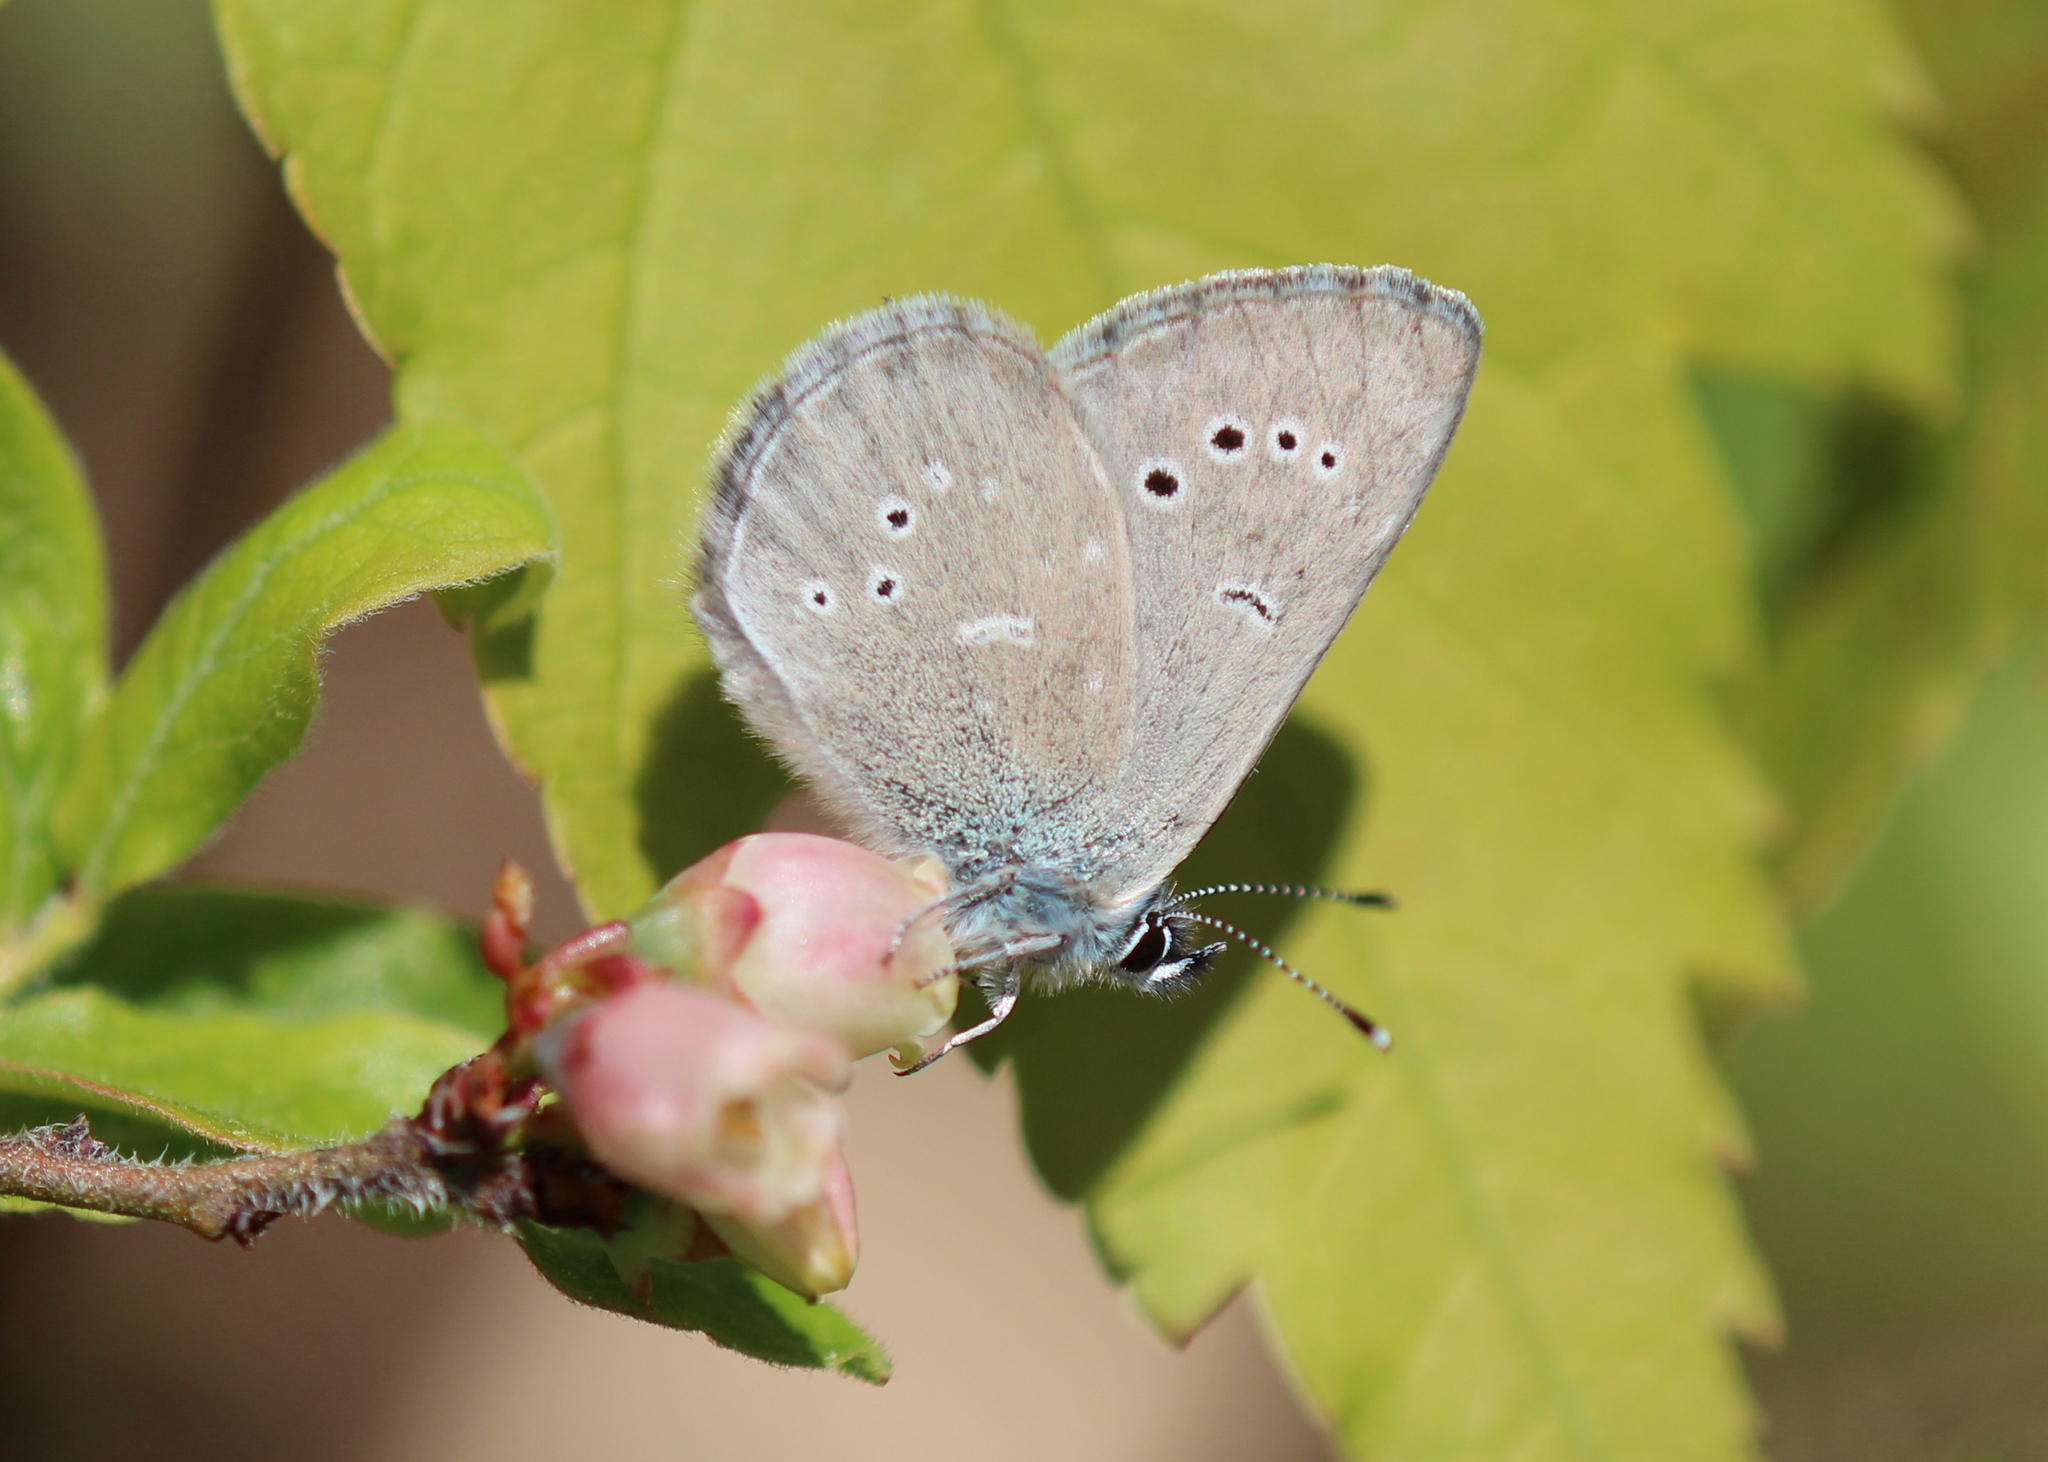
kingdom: Animalia
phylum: Arthropoda
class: Insecta
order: Lepidoptera
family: Lycaenidae
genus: Glaucopsyche
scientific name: Glaucopsyche lygdamus
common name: Silvery blue
